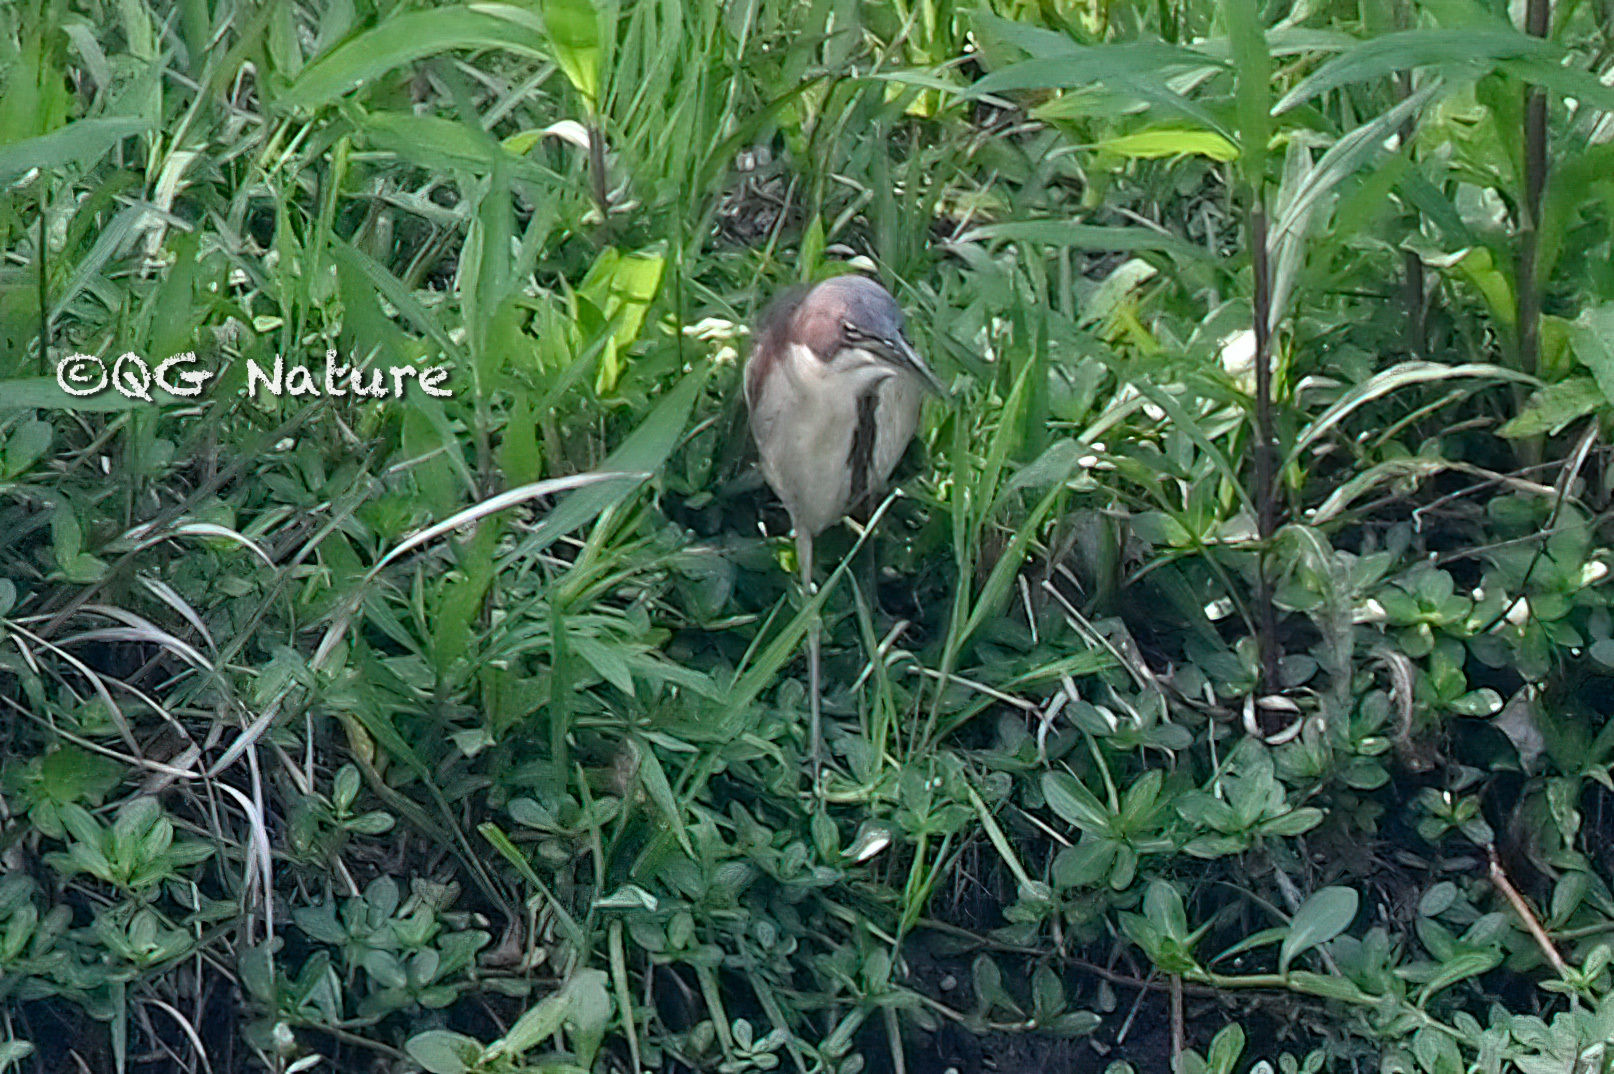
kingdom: Animalia
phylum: Chordata
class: Aves
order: Pelecaniformes
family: Ardeidae
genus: Ixobrychus
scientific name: Ixobrychus eurhythmus
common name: Von schrenck's bittern
